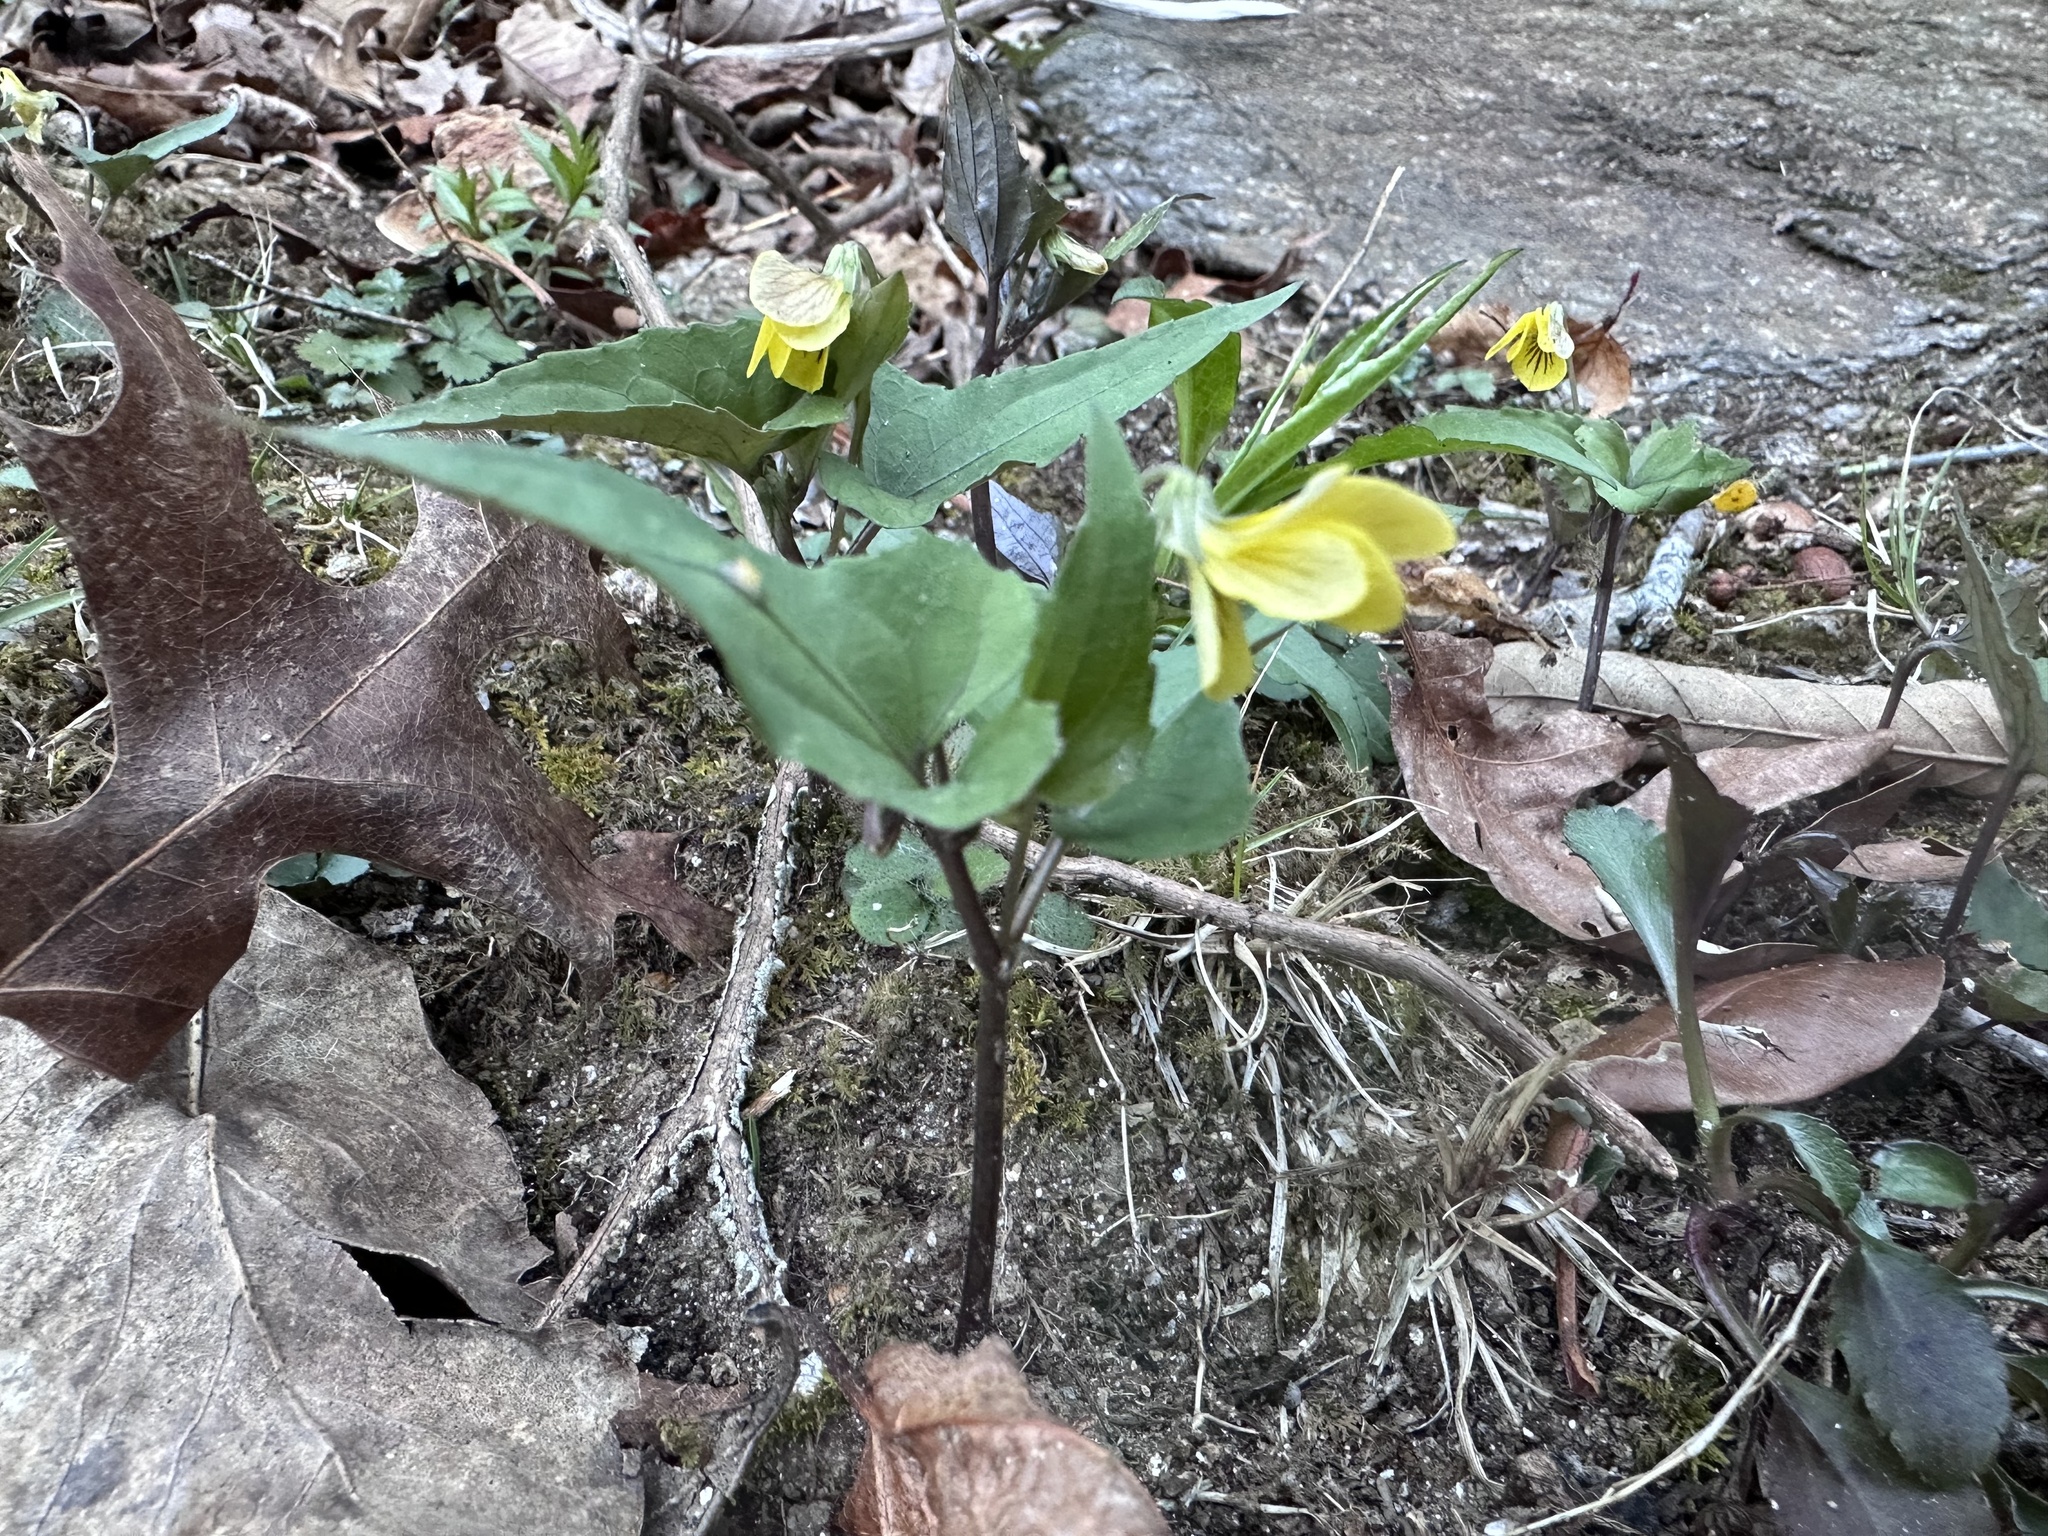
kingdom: Plantae
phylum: Tracheophyta
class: Magnoliopsida
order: Malpighiales
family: Violaceae
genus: Viola
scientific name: Viola hastata
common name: Spear-leaf violet
